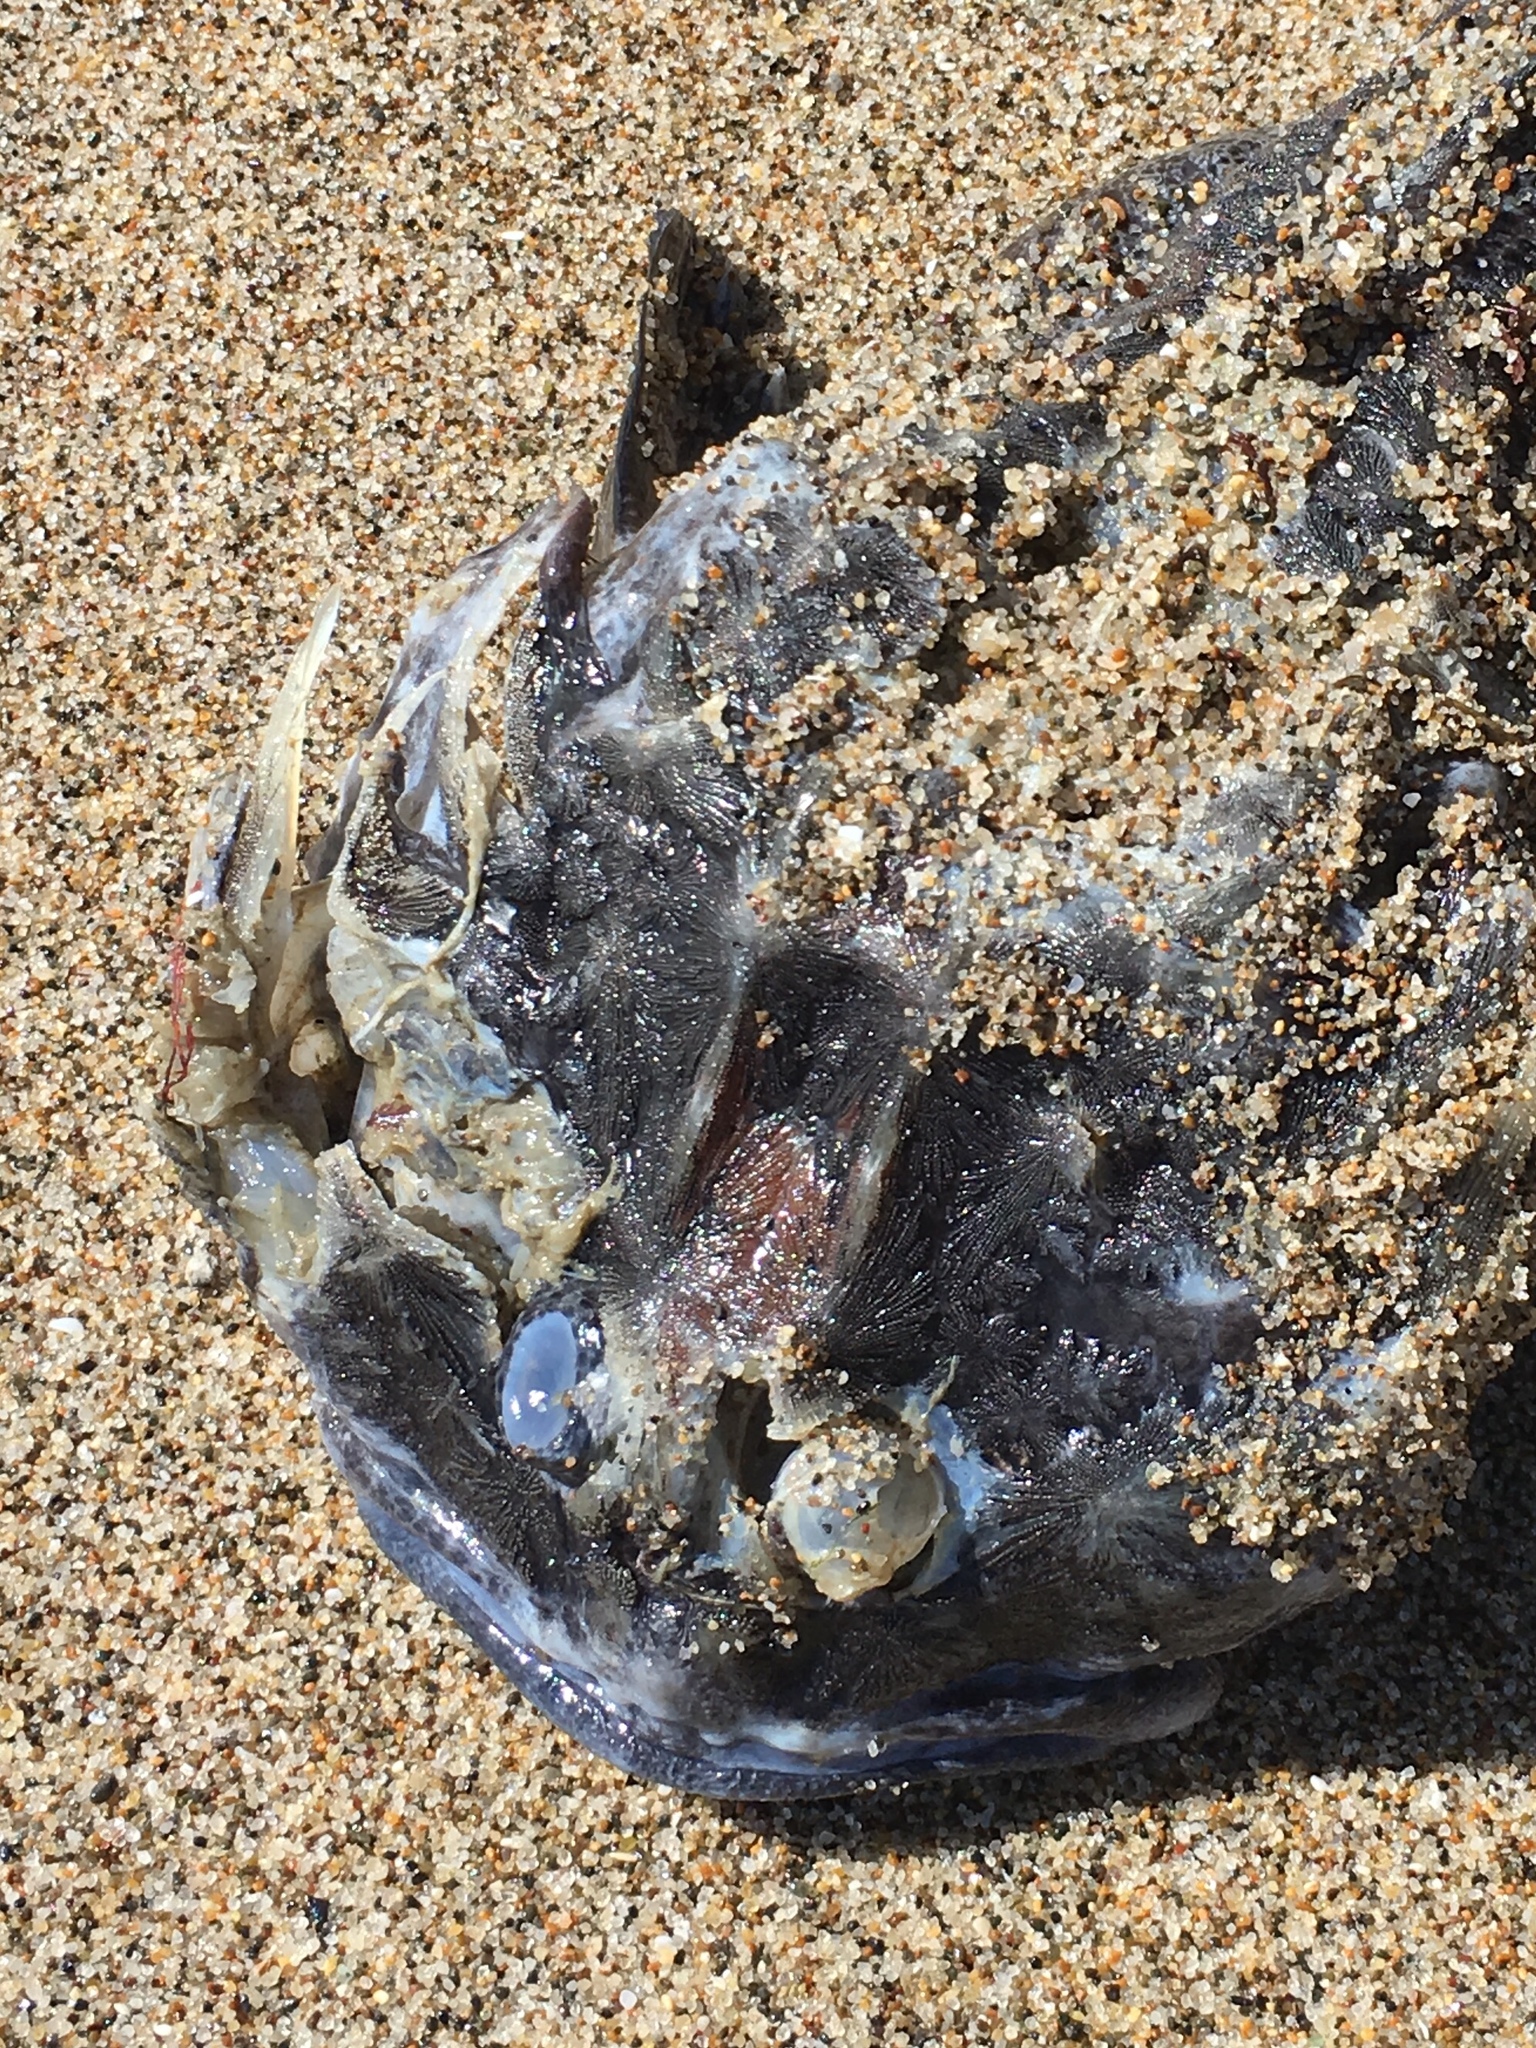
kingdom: Animalia
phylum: Chordata
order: Scorpaeniformes
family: Cottidae
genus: Enophrys
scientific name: Enophrys bison
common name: Buffalo sculpin
